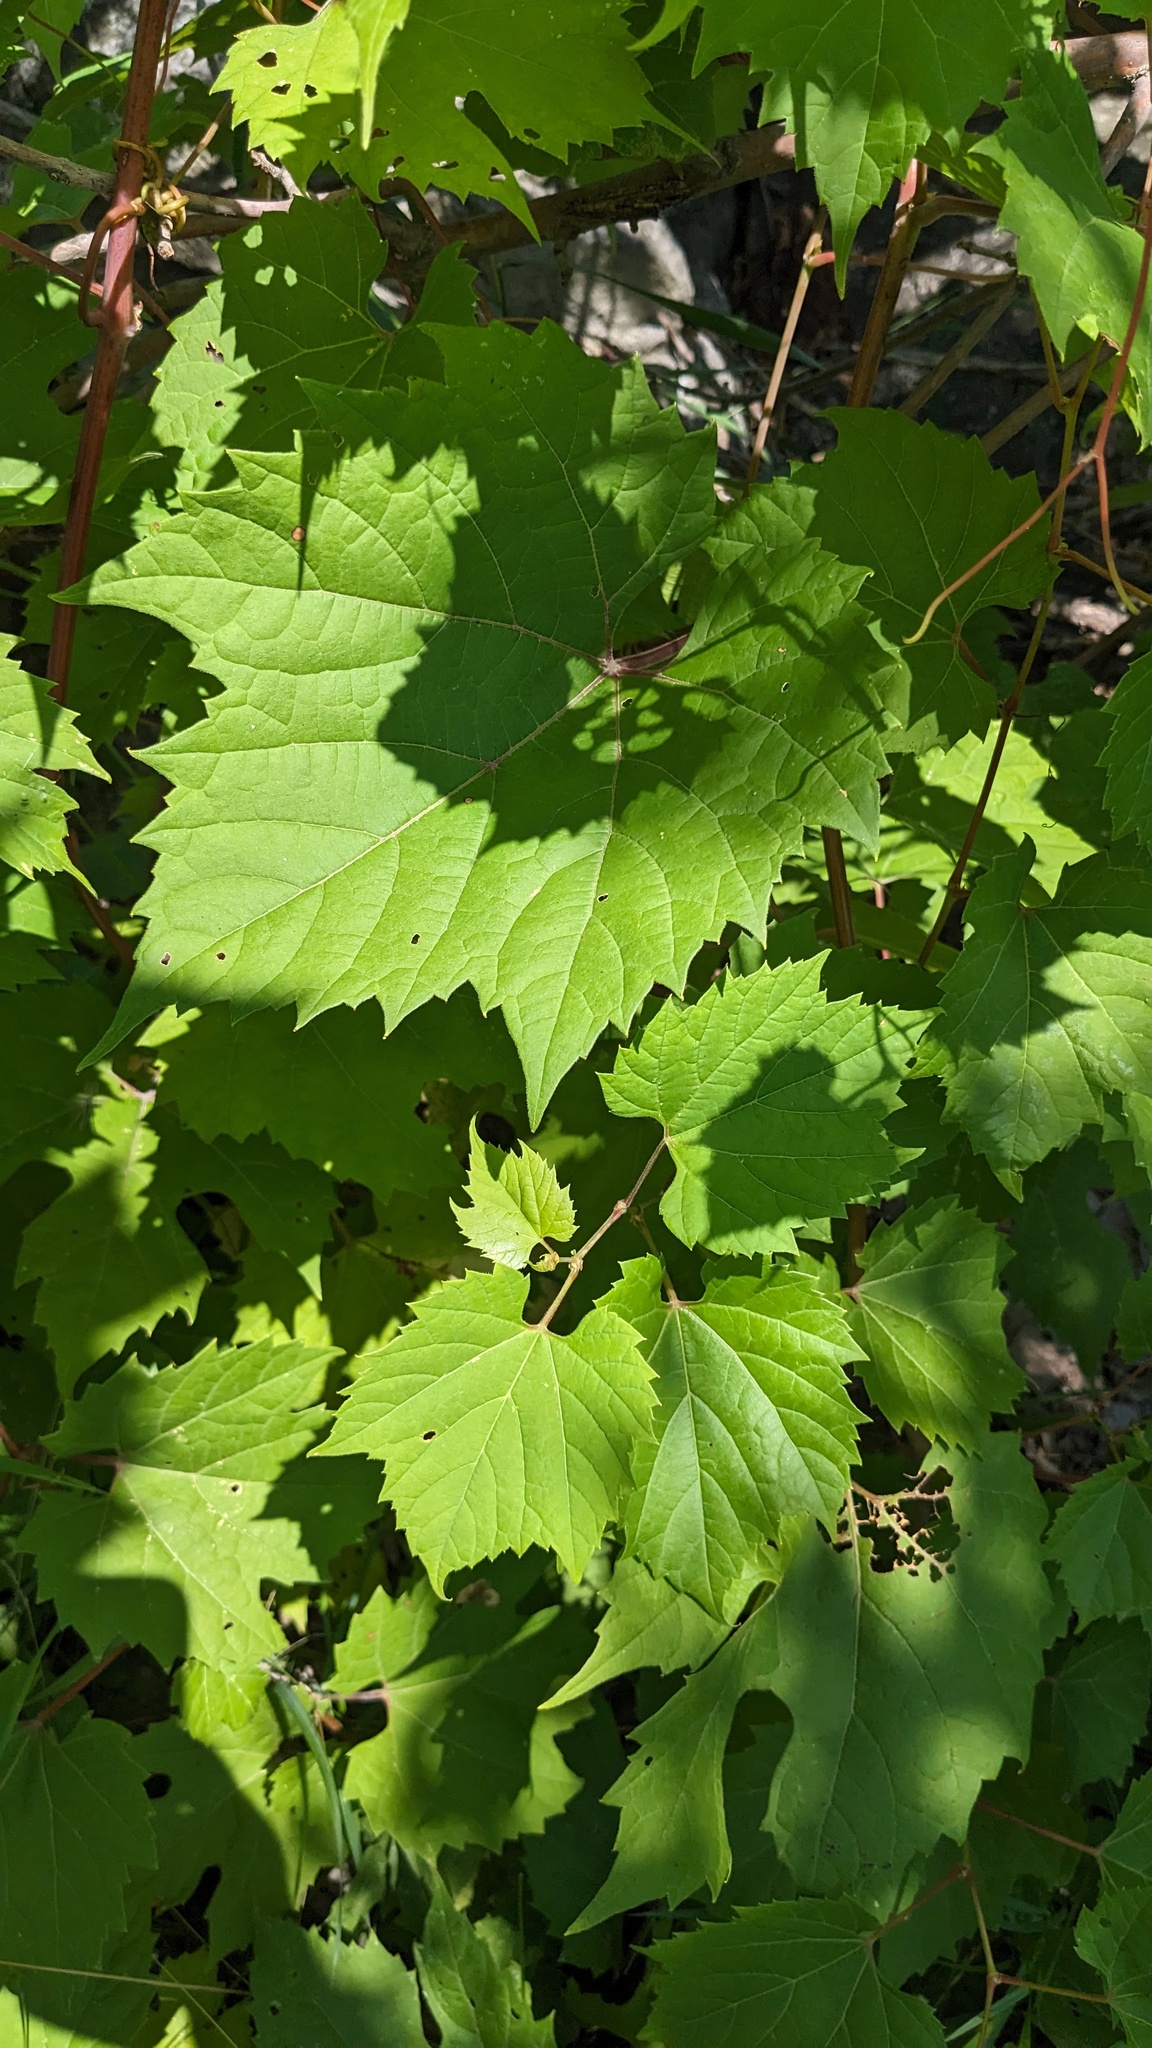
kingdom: Plantae
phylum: Tracheophyta
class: Magnoliopsida
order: Vitales
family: Vitaceae
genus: Vitis
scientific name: Vitis riparia
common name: Frost grape
